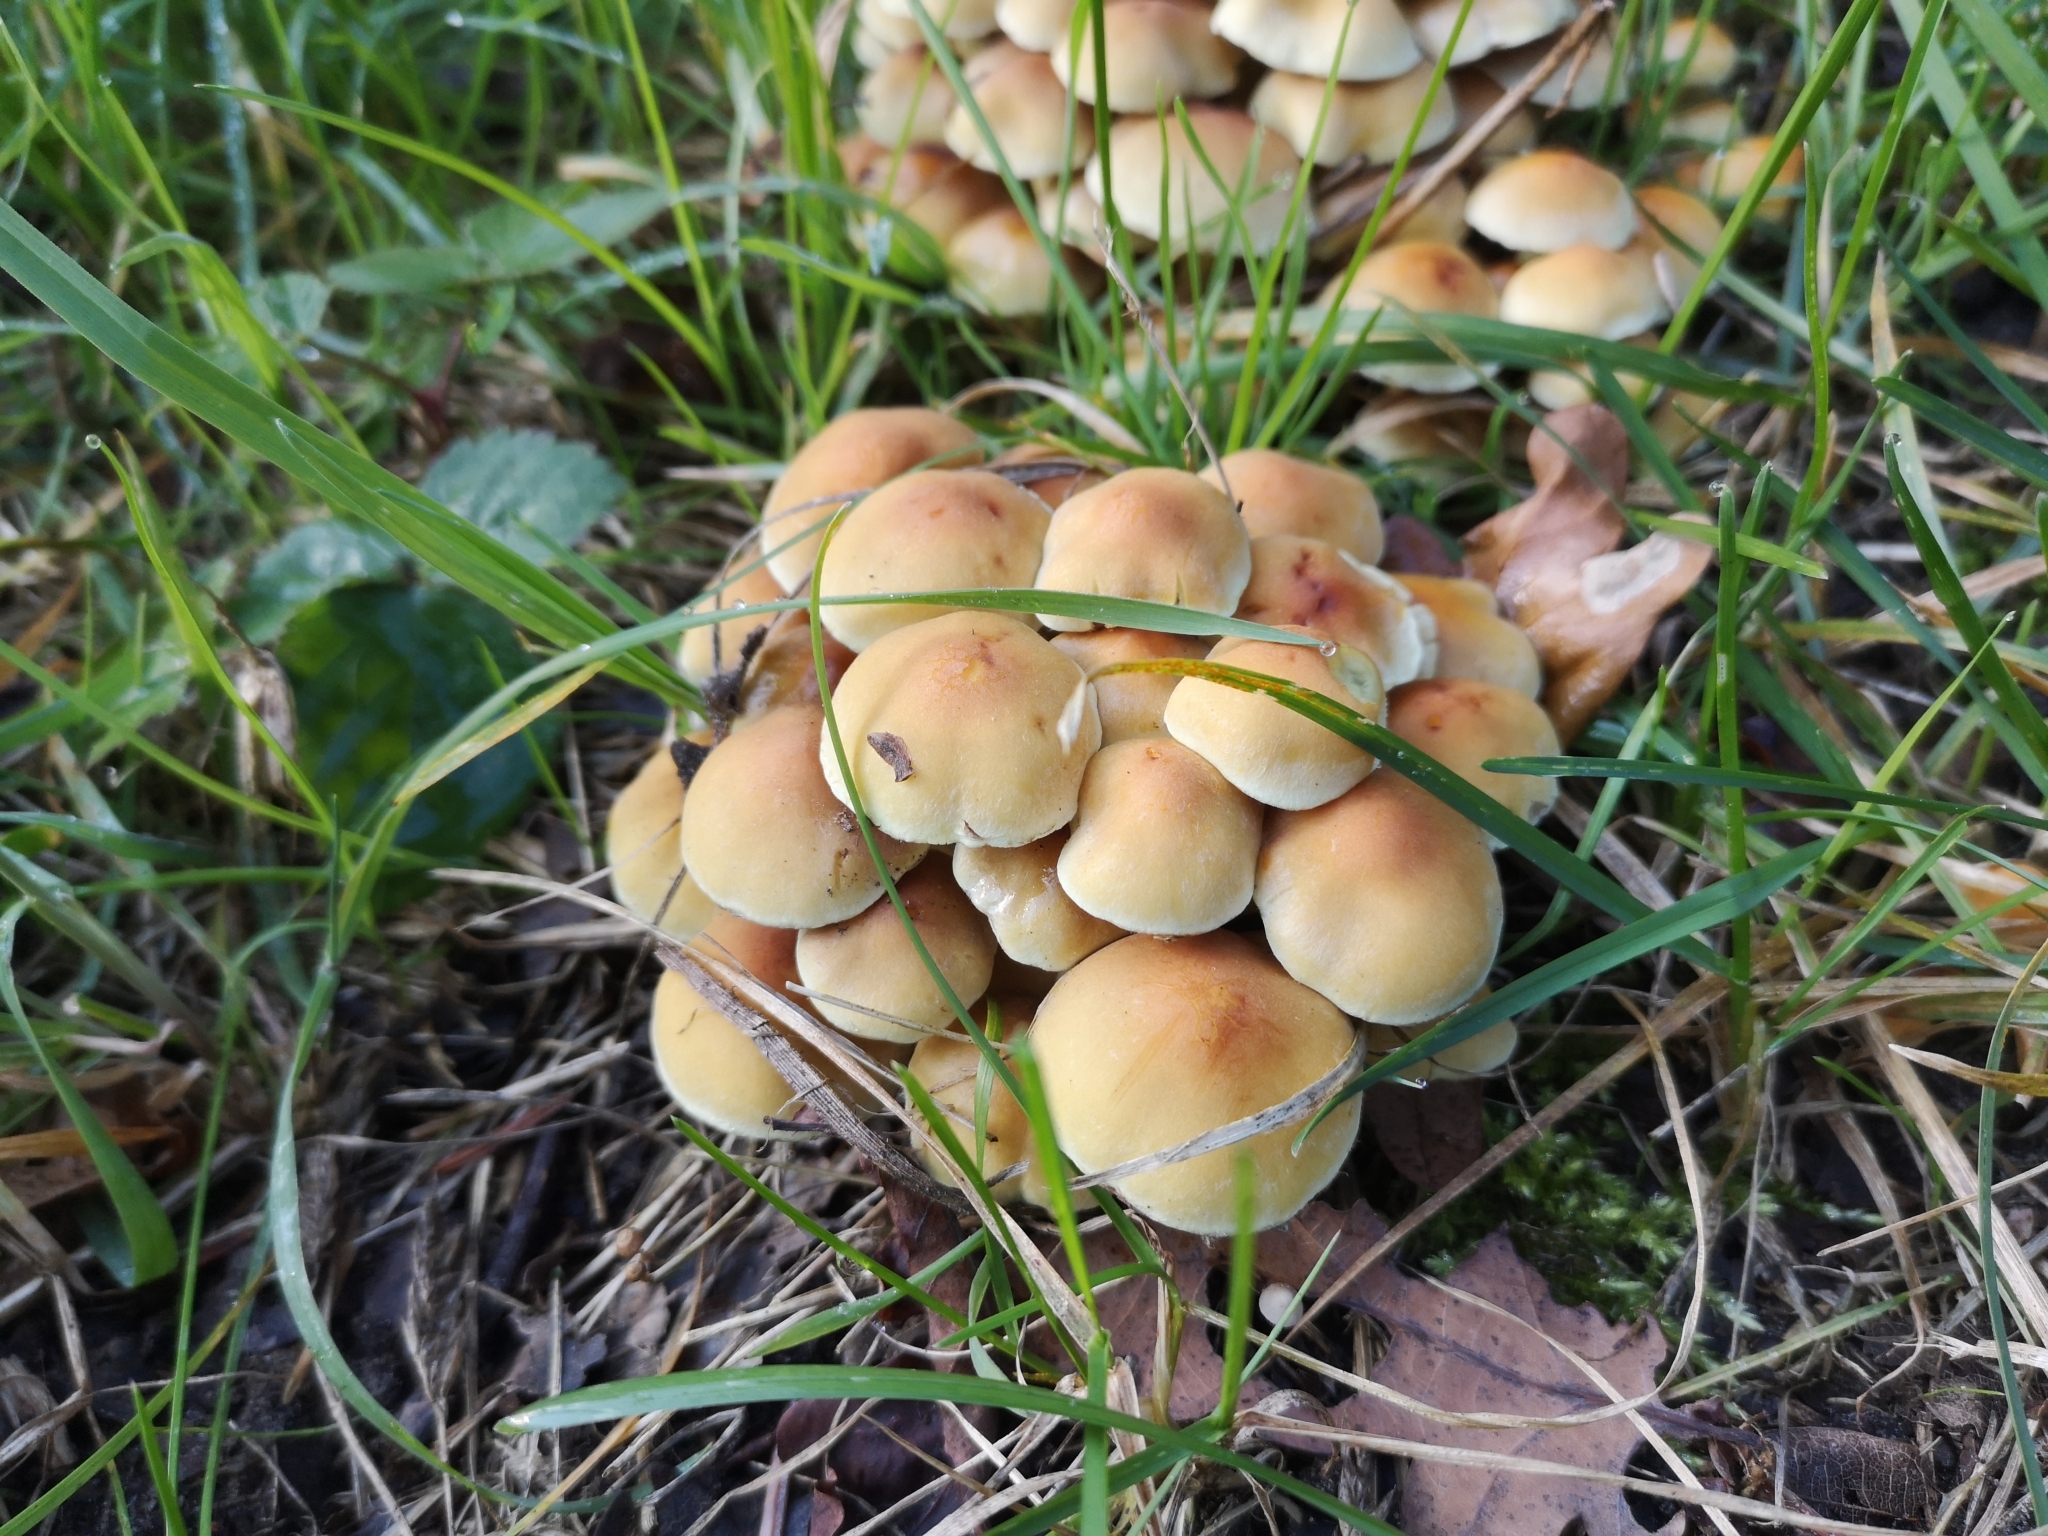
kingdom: Fungi
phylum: Basidiomycota
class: Agaricomycetes
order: Agaricales
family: Strophariaceae
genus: Hypholoma
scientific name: Hypholoma fasciculare
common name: Sulphur tuft
